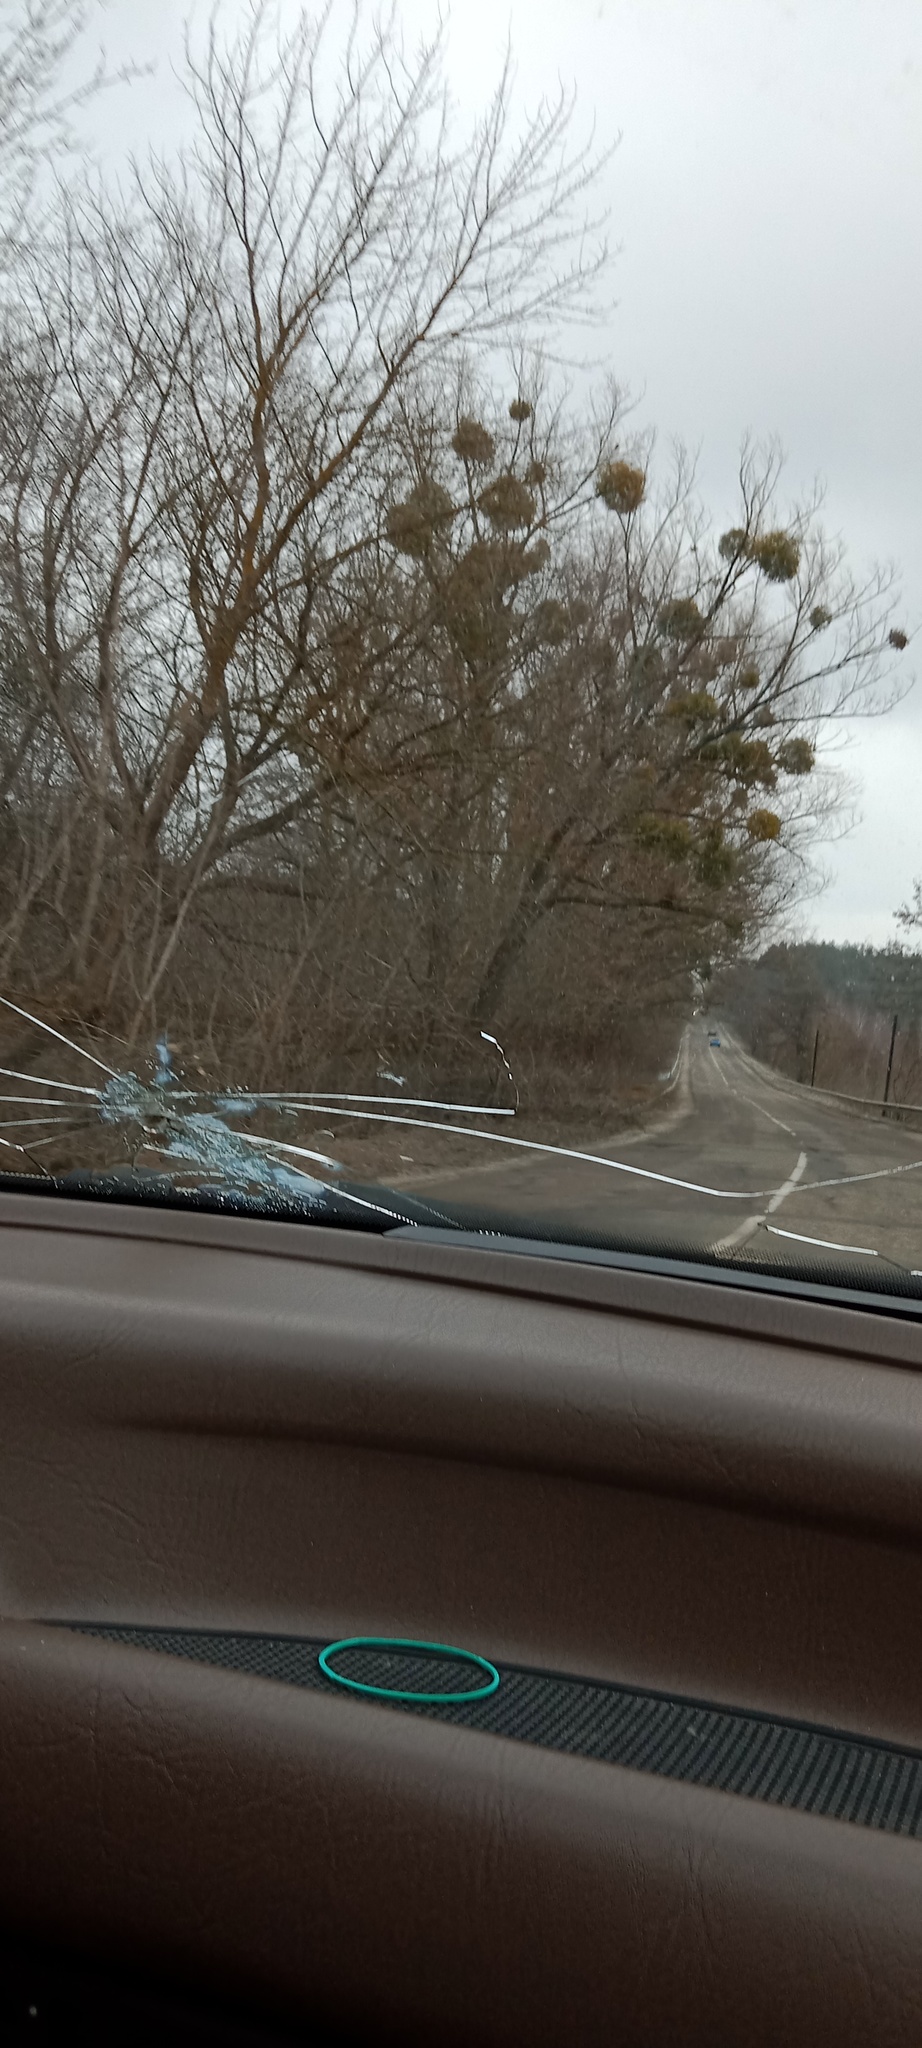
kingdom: Plantae
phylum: Tracheophyta
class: Magnoliopsida
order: Santalales
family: Viscaceae
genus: Viscum
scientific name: Viscum album
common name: Mistletoe
